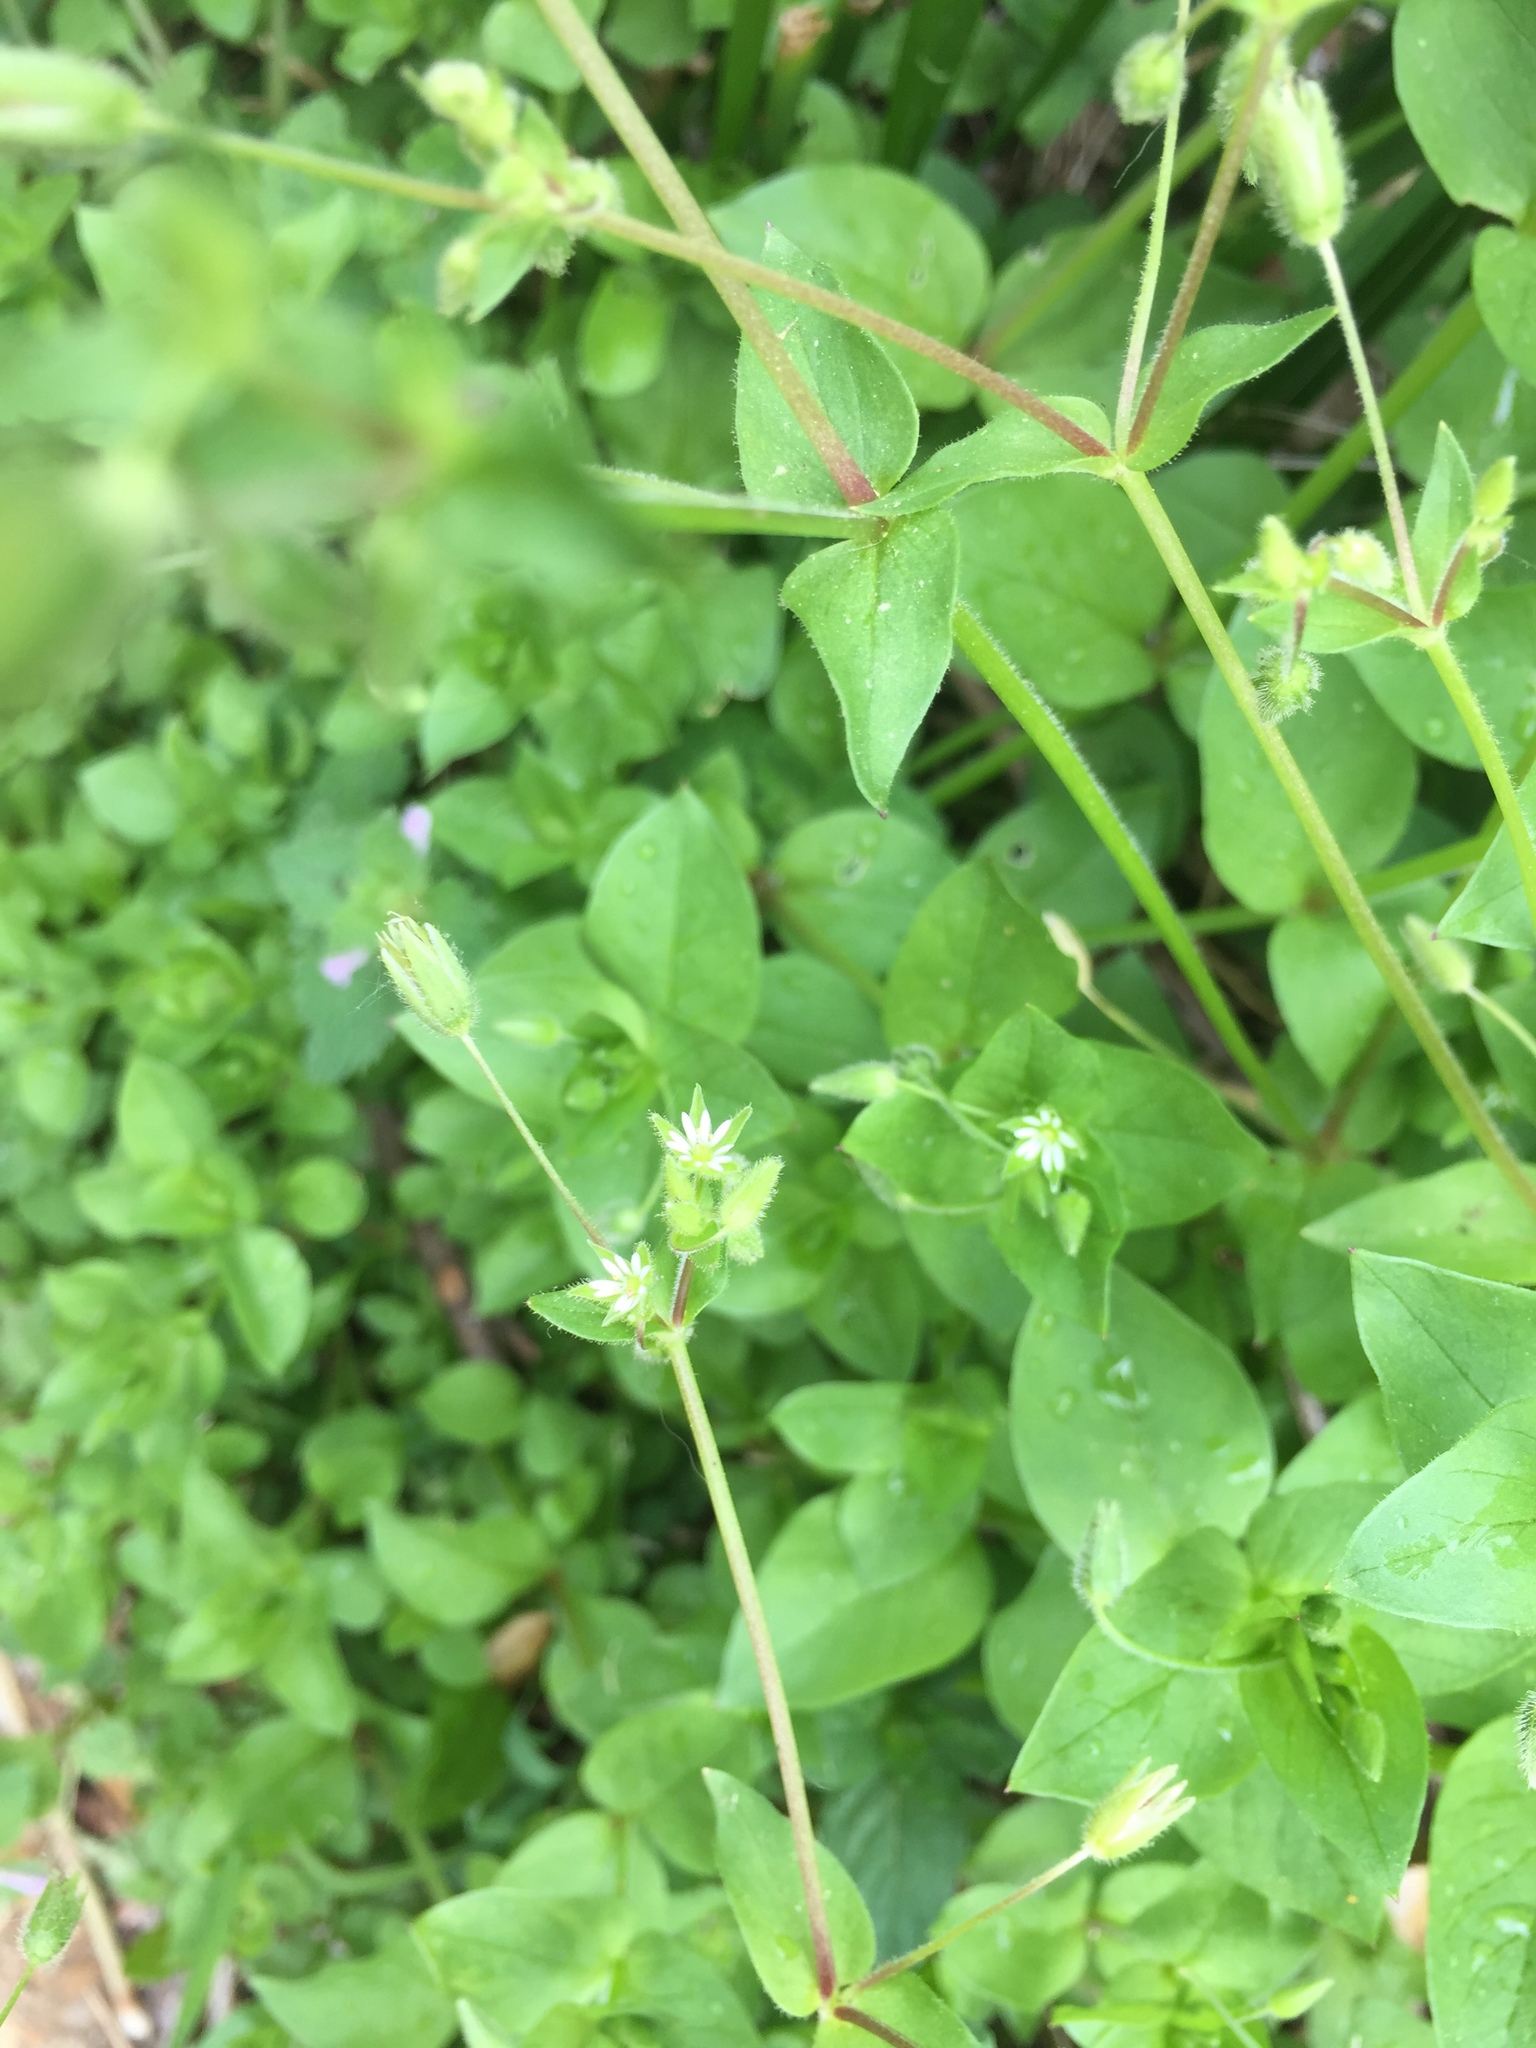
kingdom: Plantae
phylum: Tracheophyta
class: Magnoliopsida
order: Caryophyllales
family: Caryophyllaceae
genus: Stellaria
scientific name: Stellaria media
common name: Common chickweed
